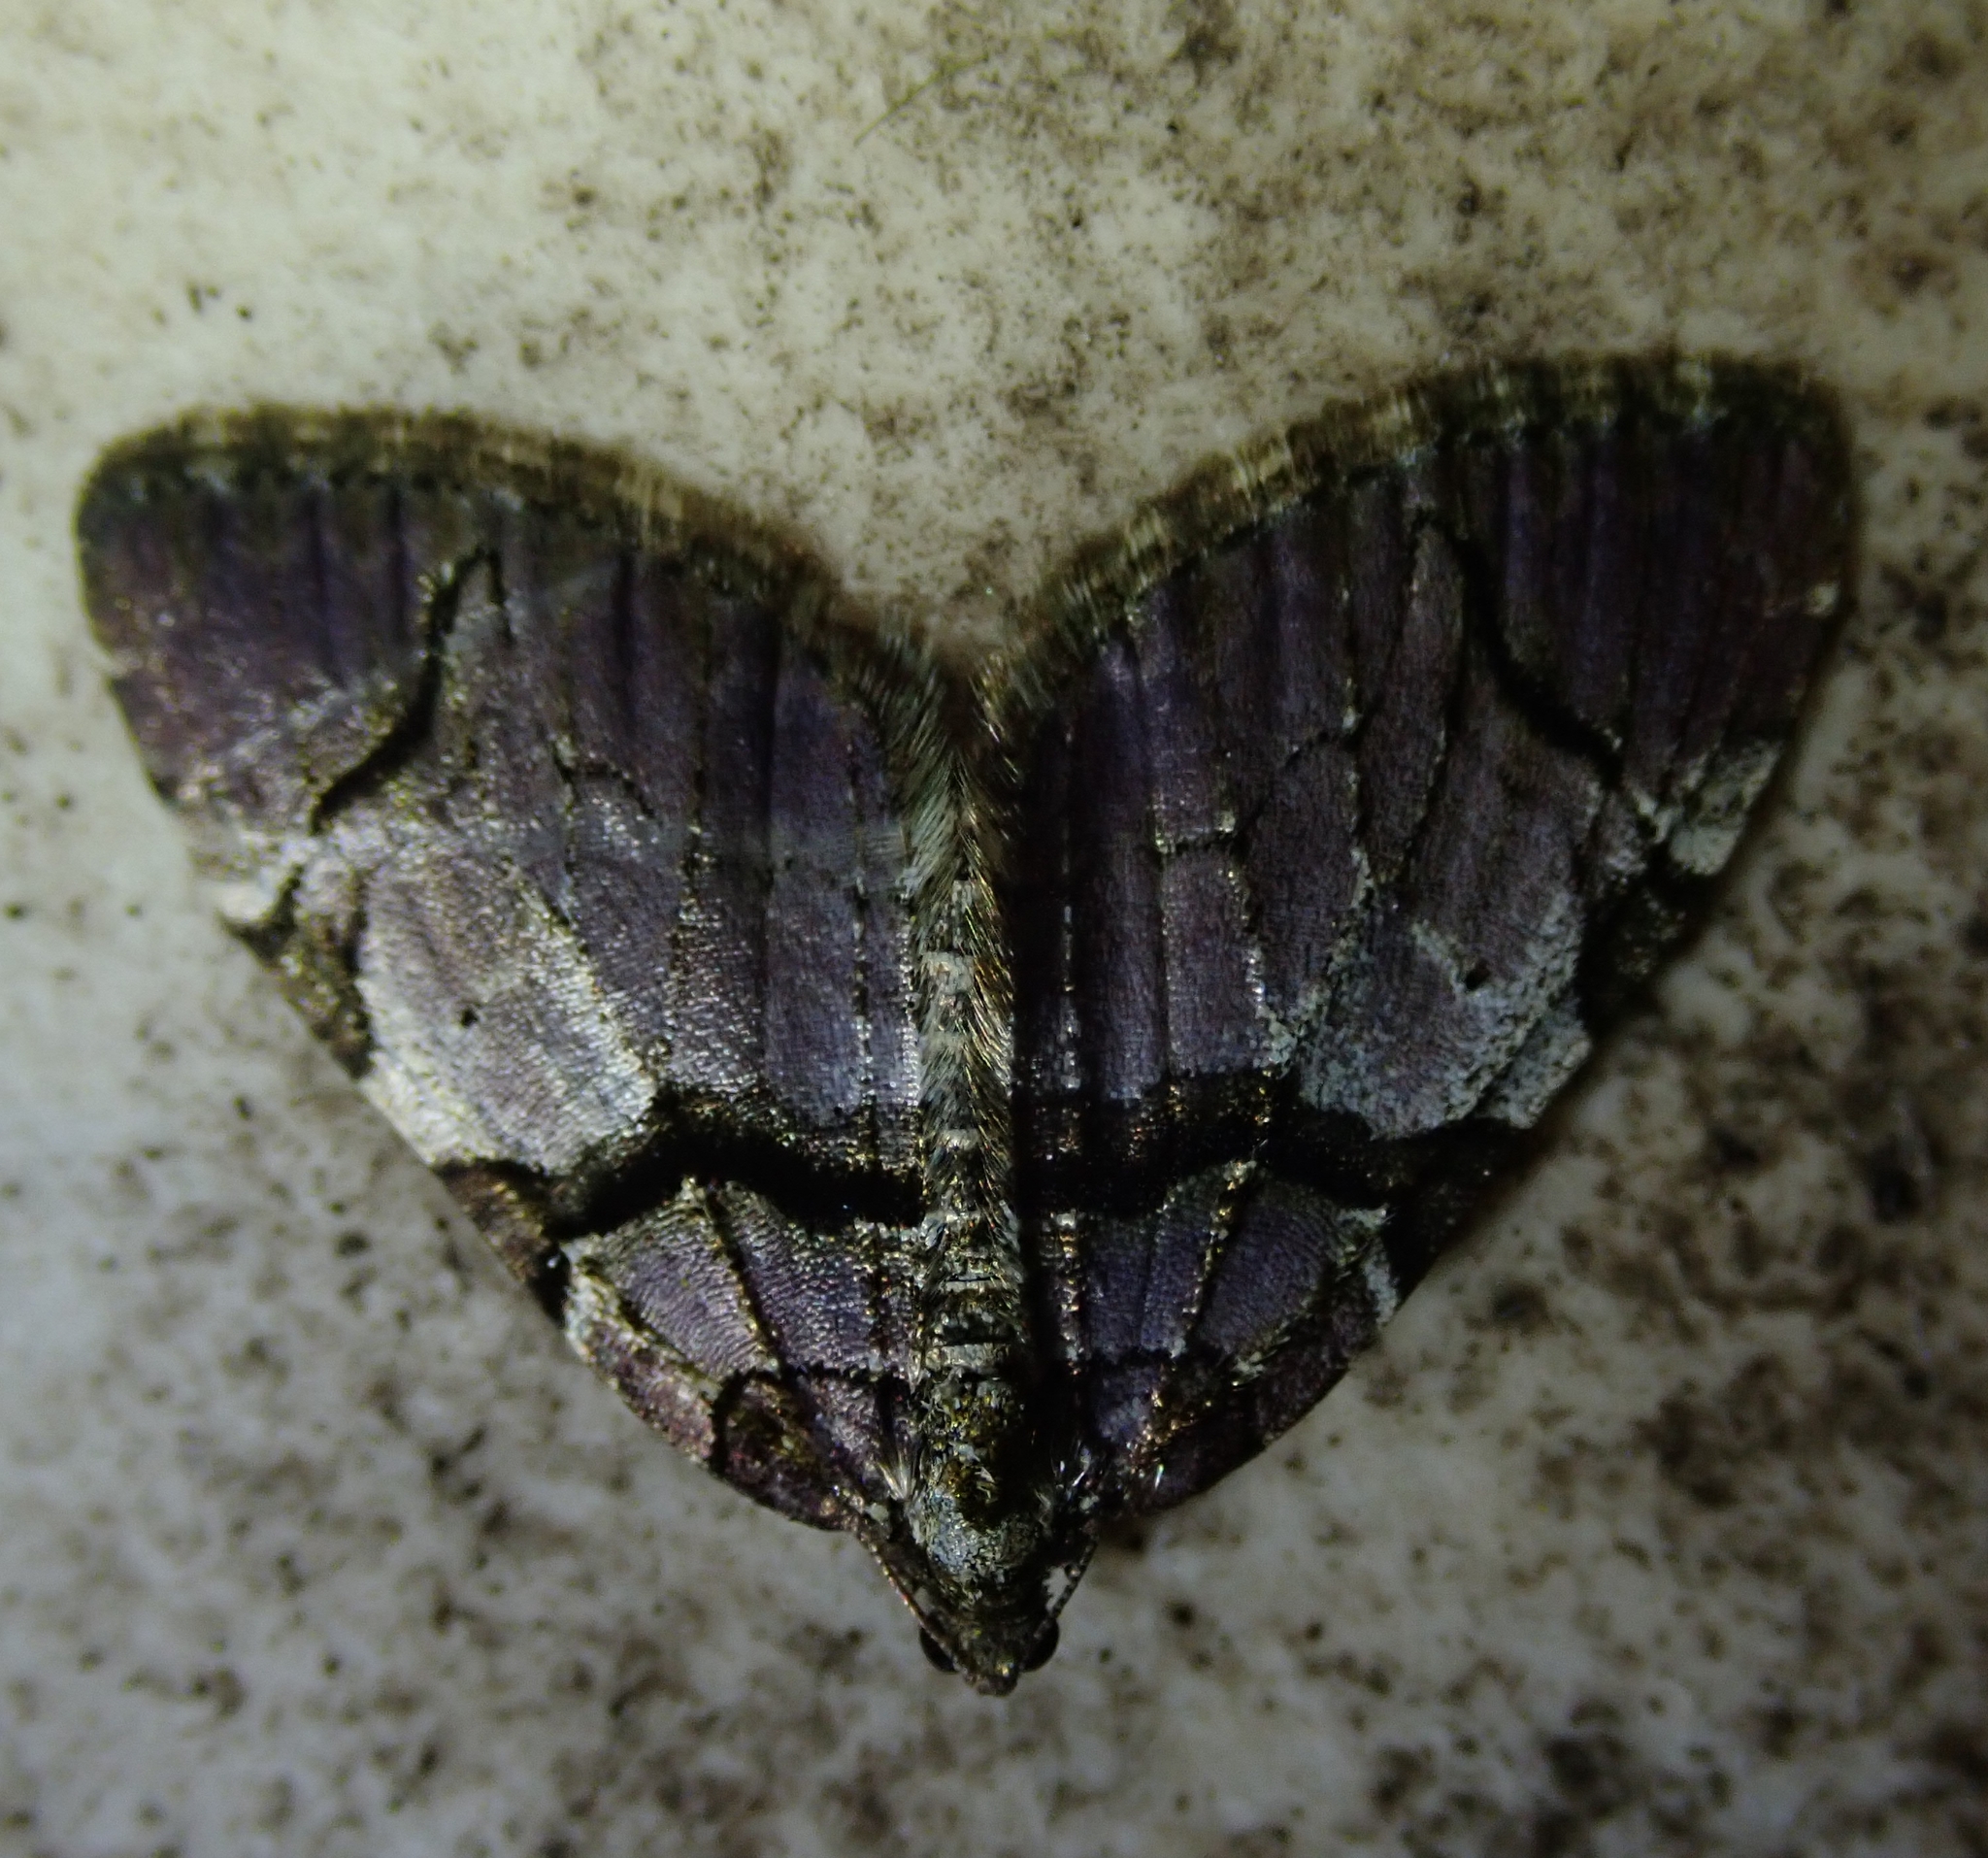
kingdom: Animalia
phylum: Arthropoda
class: Insecta
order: Lepidoptera
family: Geometridae
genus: Anticlea
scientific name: Anticlea derivata
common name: Streamer
